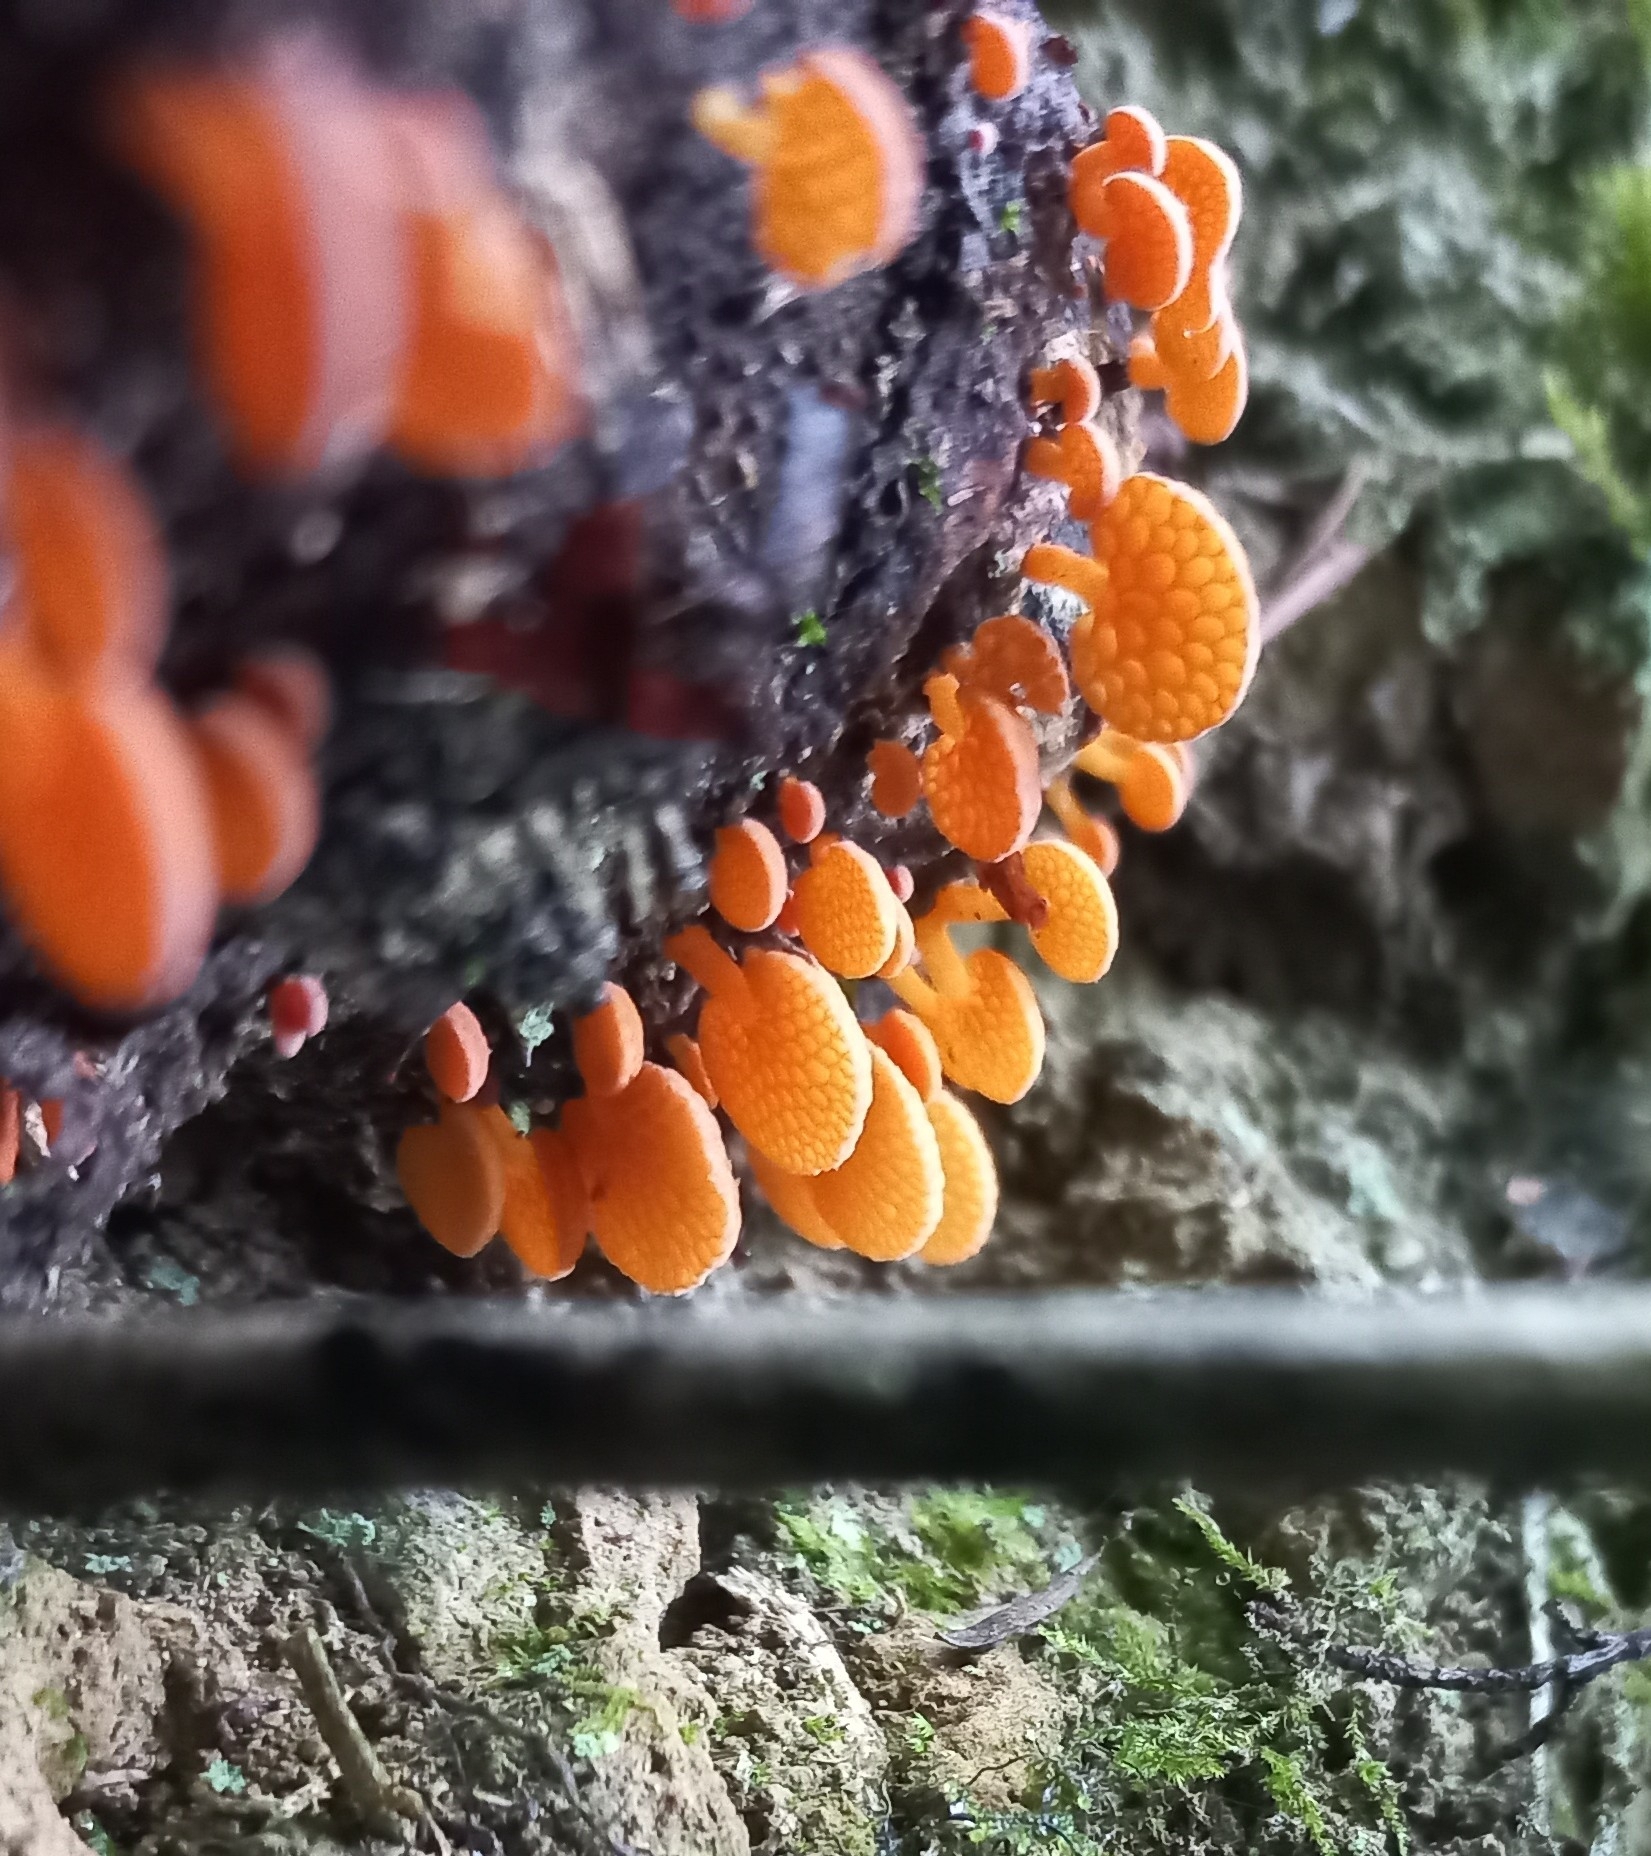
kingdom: Fungi
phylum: Basidiomycota
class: Agaricomycetes
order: Agaricales
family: Mycenaceae
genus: Favolaschia
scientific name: Favolaschia claudopus
